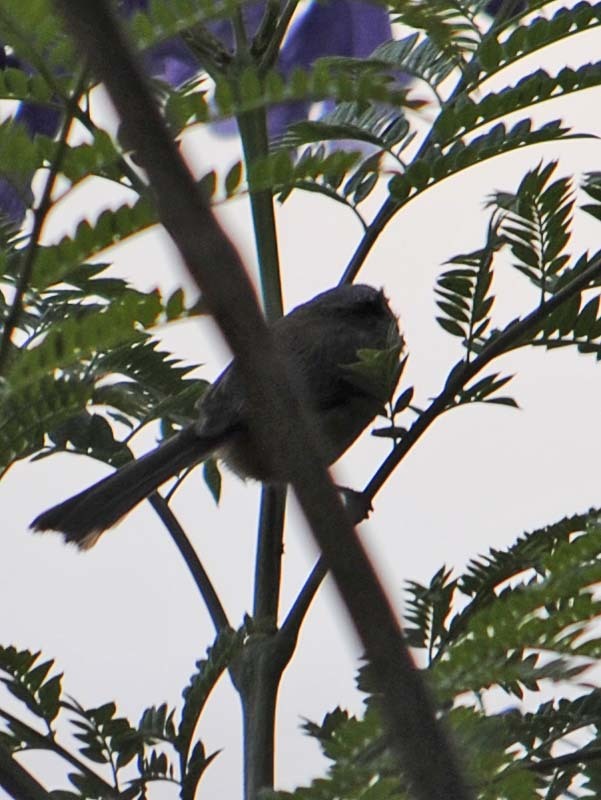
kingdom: Animalia
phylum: Chordata
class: Aves
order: Passeriformes
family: Aegithalidae
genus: Psaltriparus
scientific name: Psaltriparus minimus
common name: American bushtit
